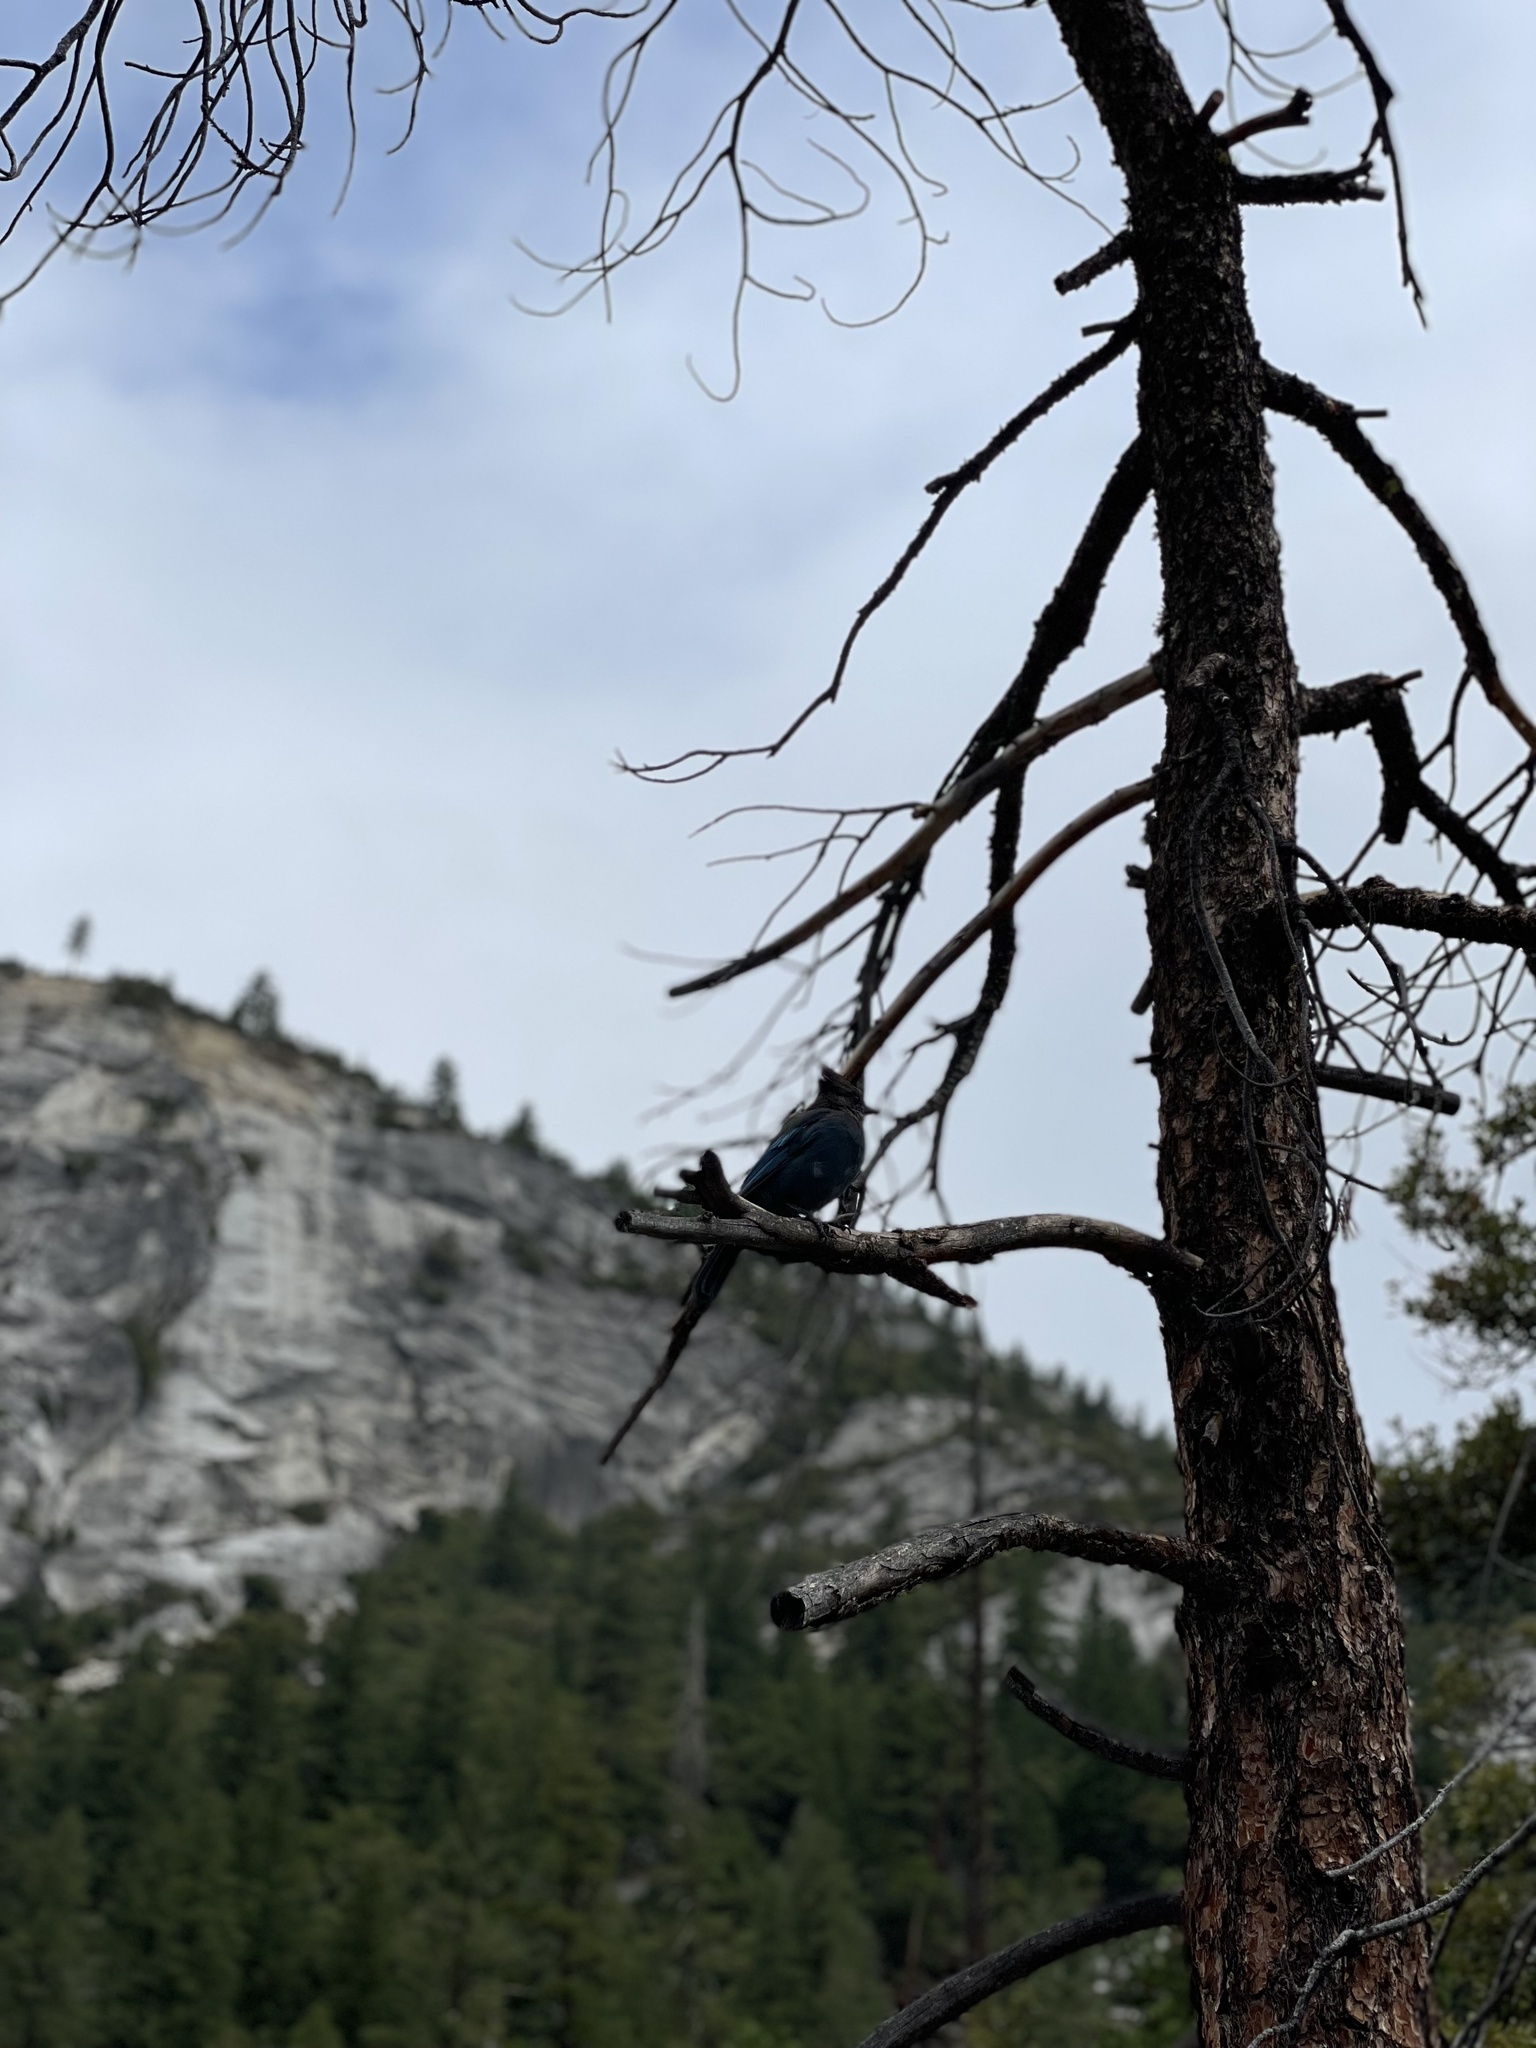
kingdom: Animalia
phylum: Chordata
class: Aves
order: Passeriformes
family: Corvidae
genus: Cyanocitta
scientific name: Cyanocitta stelleri
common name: Steller's jay
